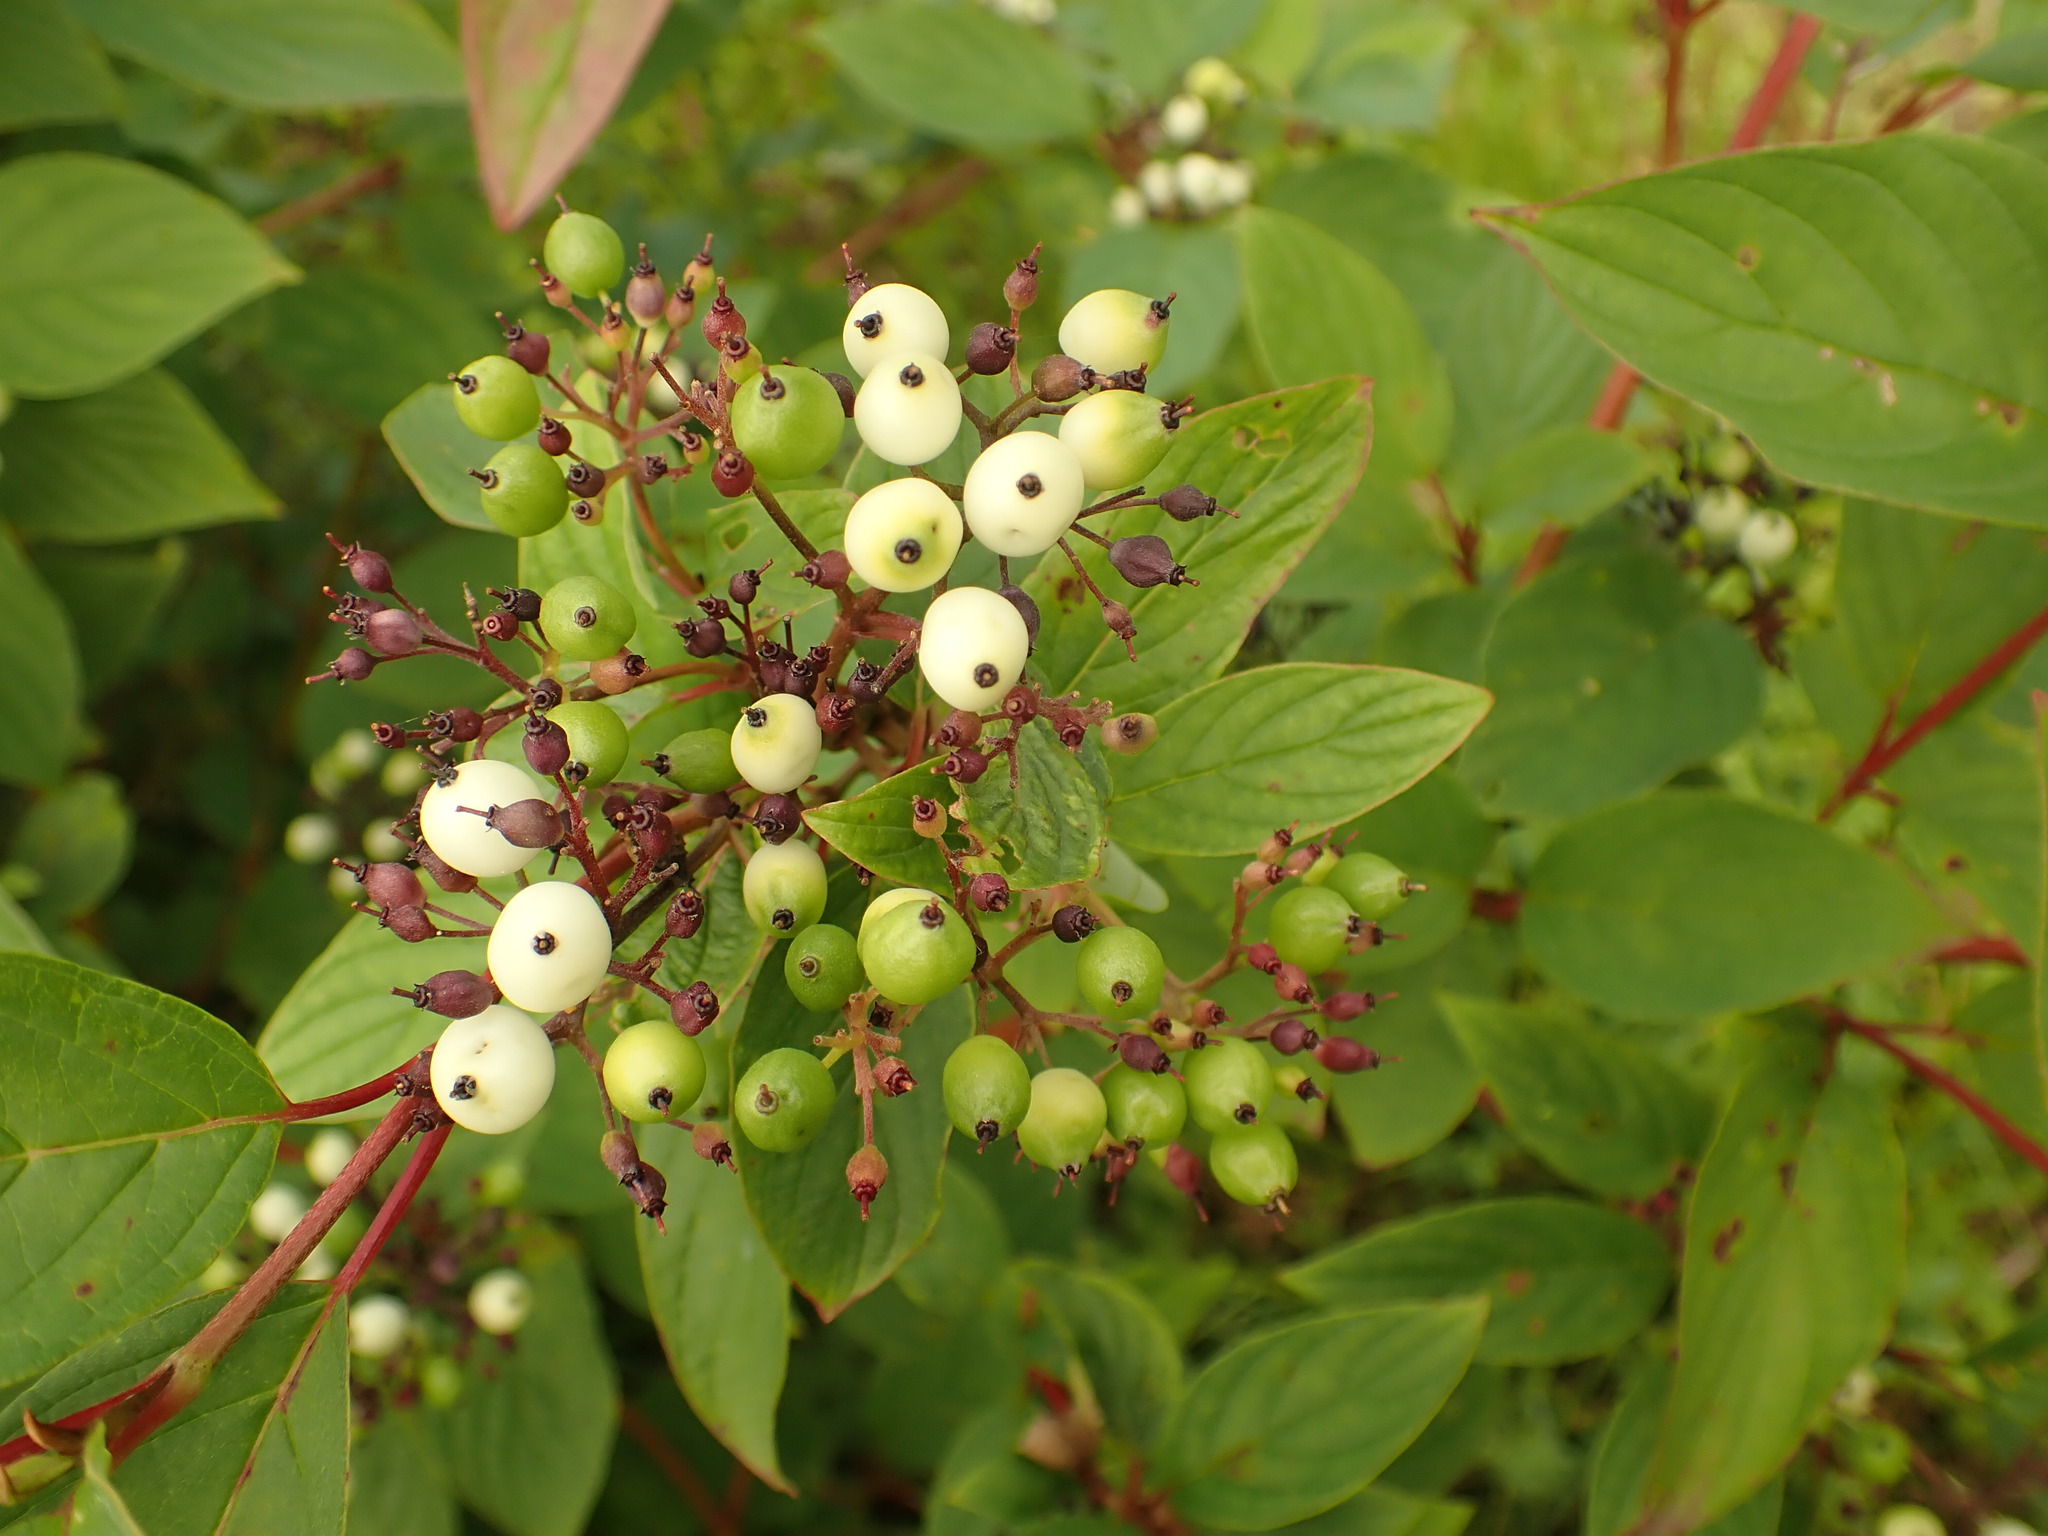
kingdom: Plantae
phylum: Tracheophyta
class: Magnoliopsida
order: Cornales
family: Cornaceae
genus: Cornus
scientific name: Cornus sericea
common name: Red-osier dogwood
